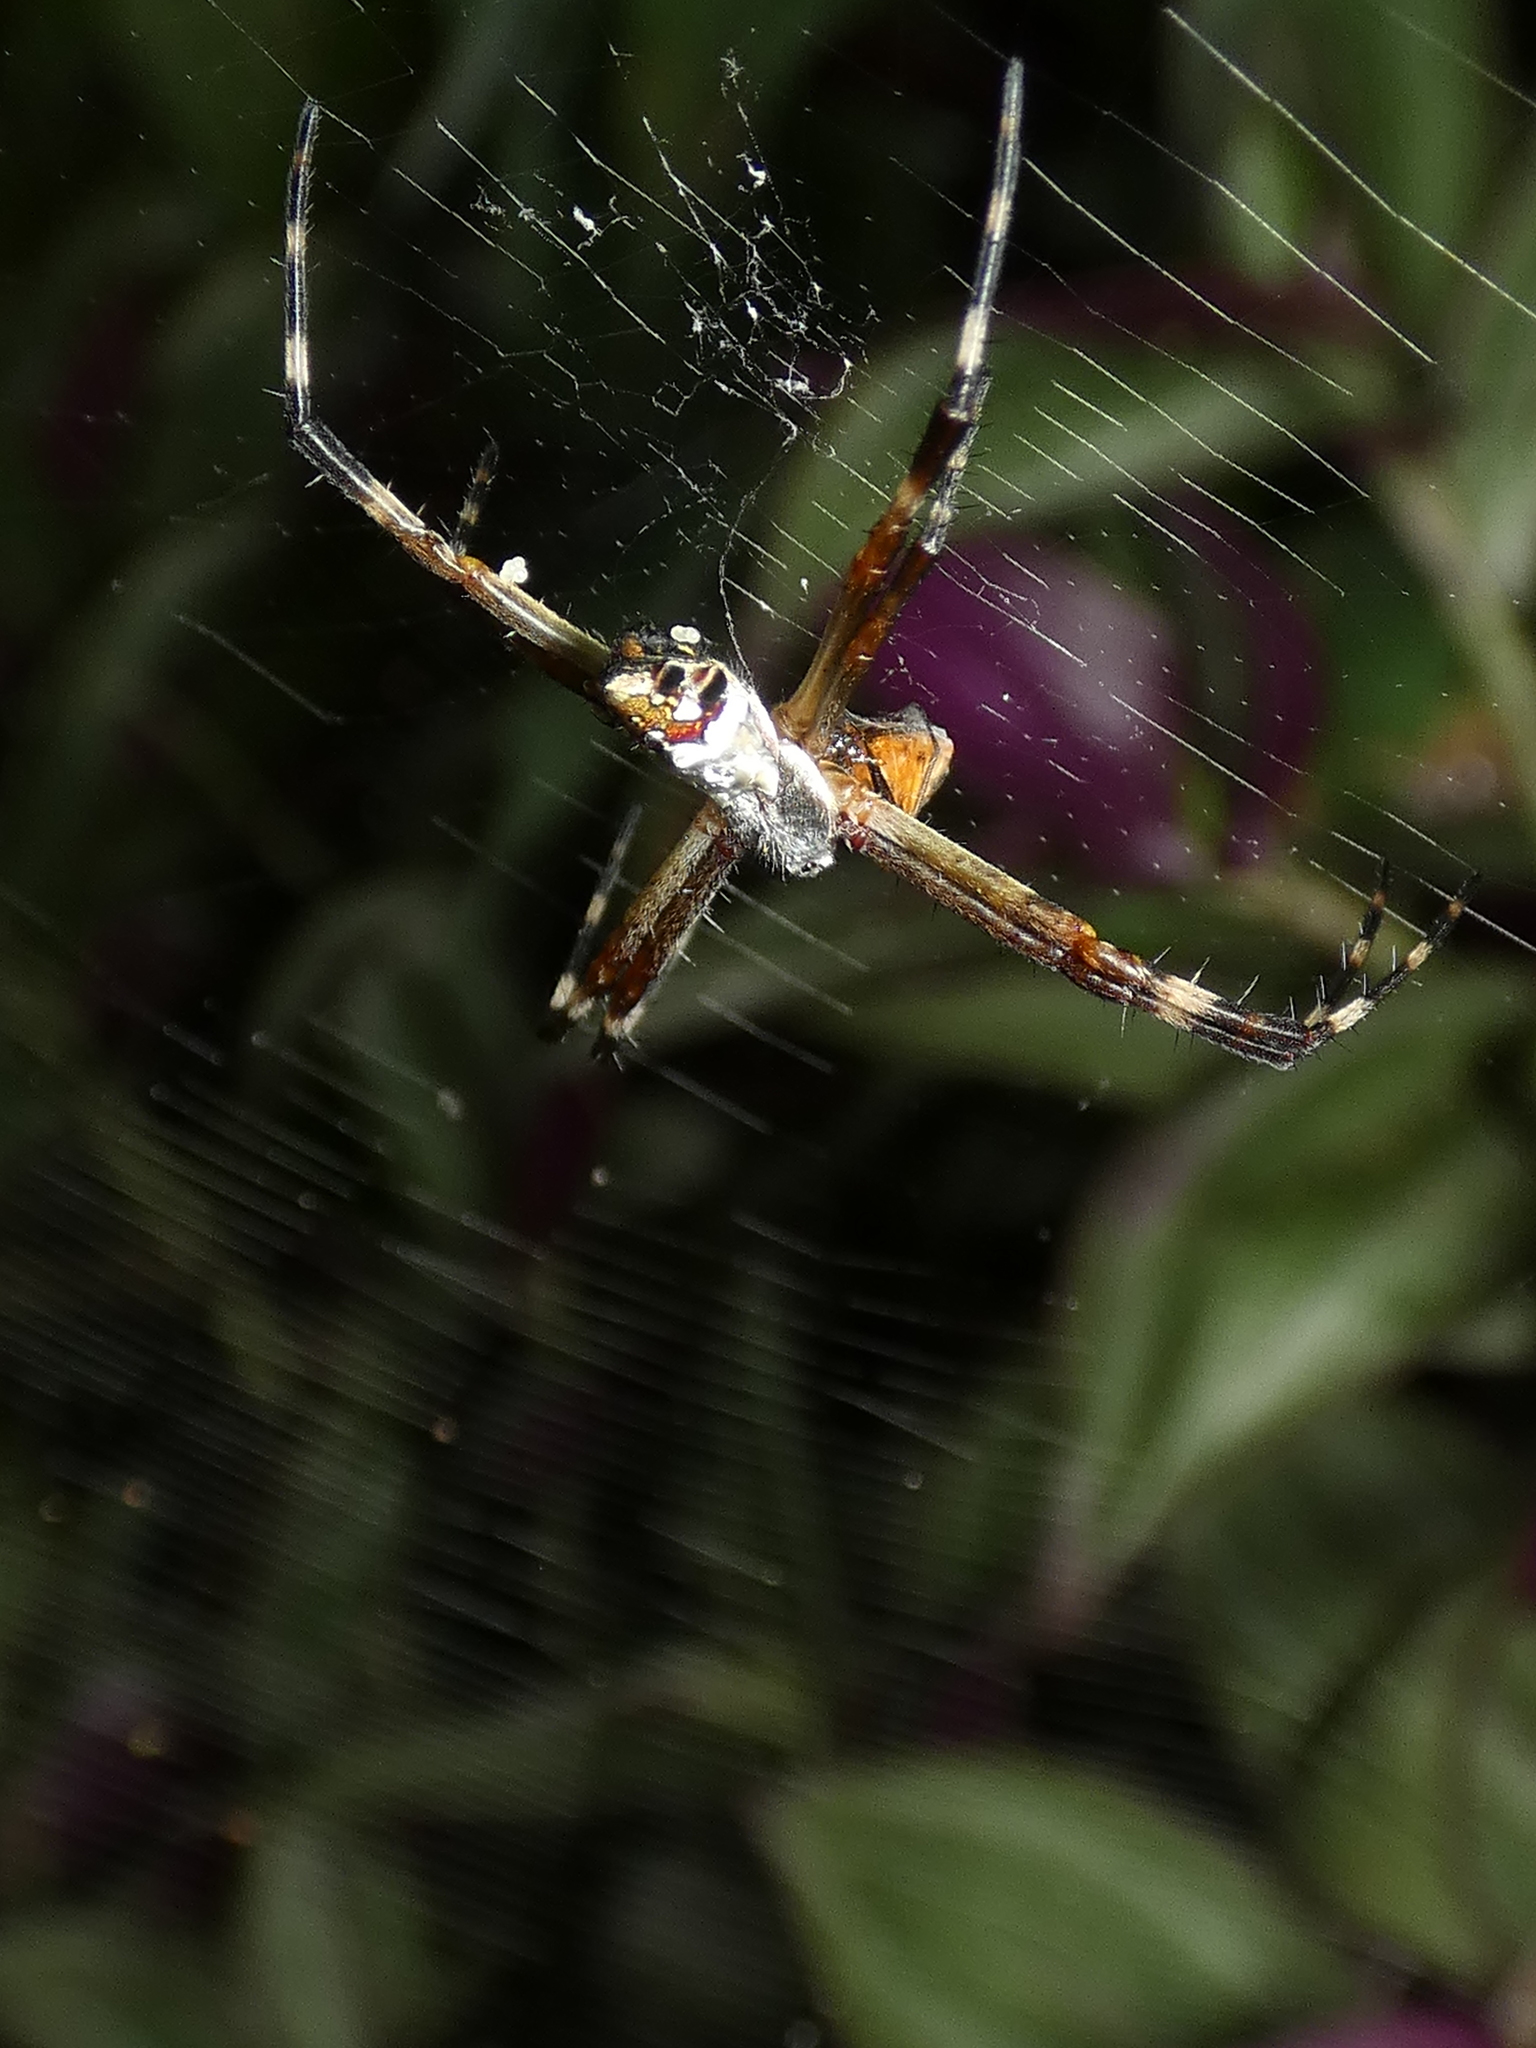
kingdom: Animalia
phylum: Arthropoda
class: Arachnida
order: Araneae
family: Araneidae
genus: Argiope
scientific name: Argiope argentata
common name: Orb weavers
